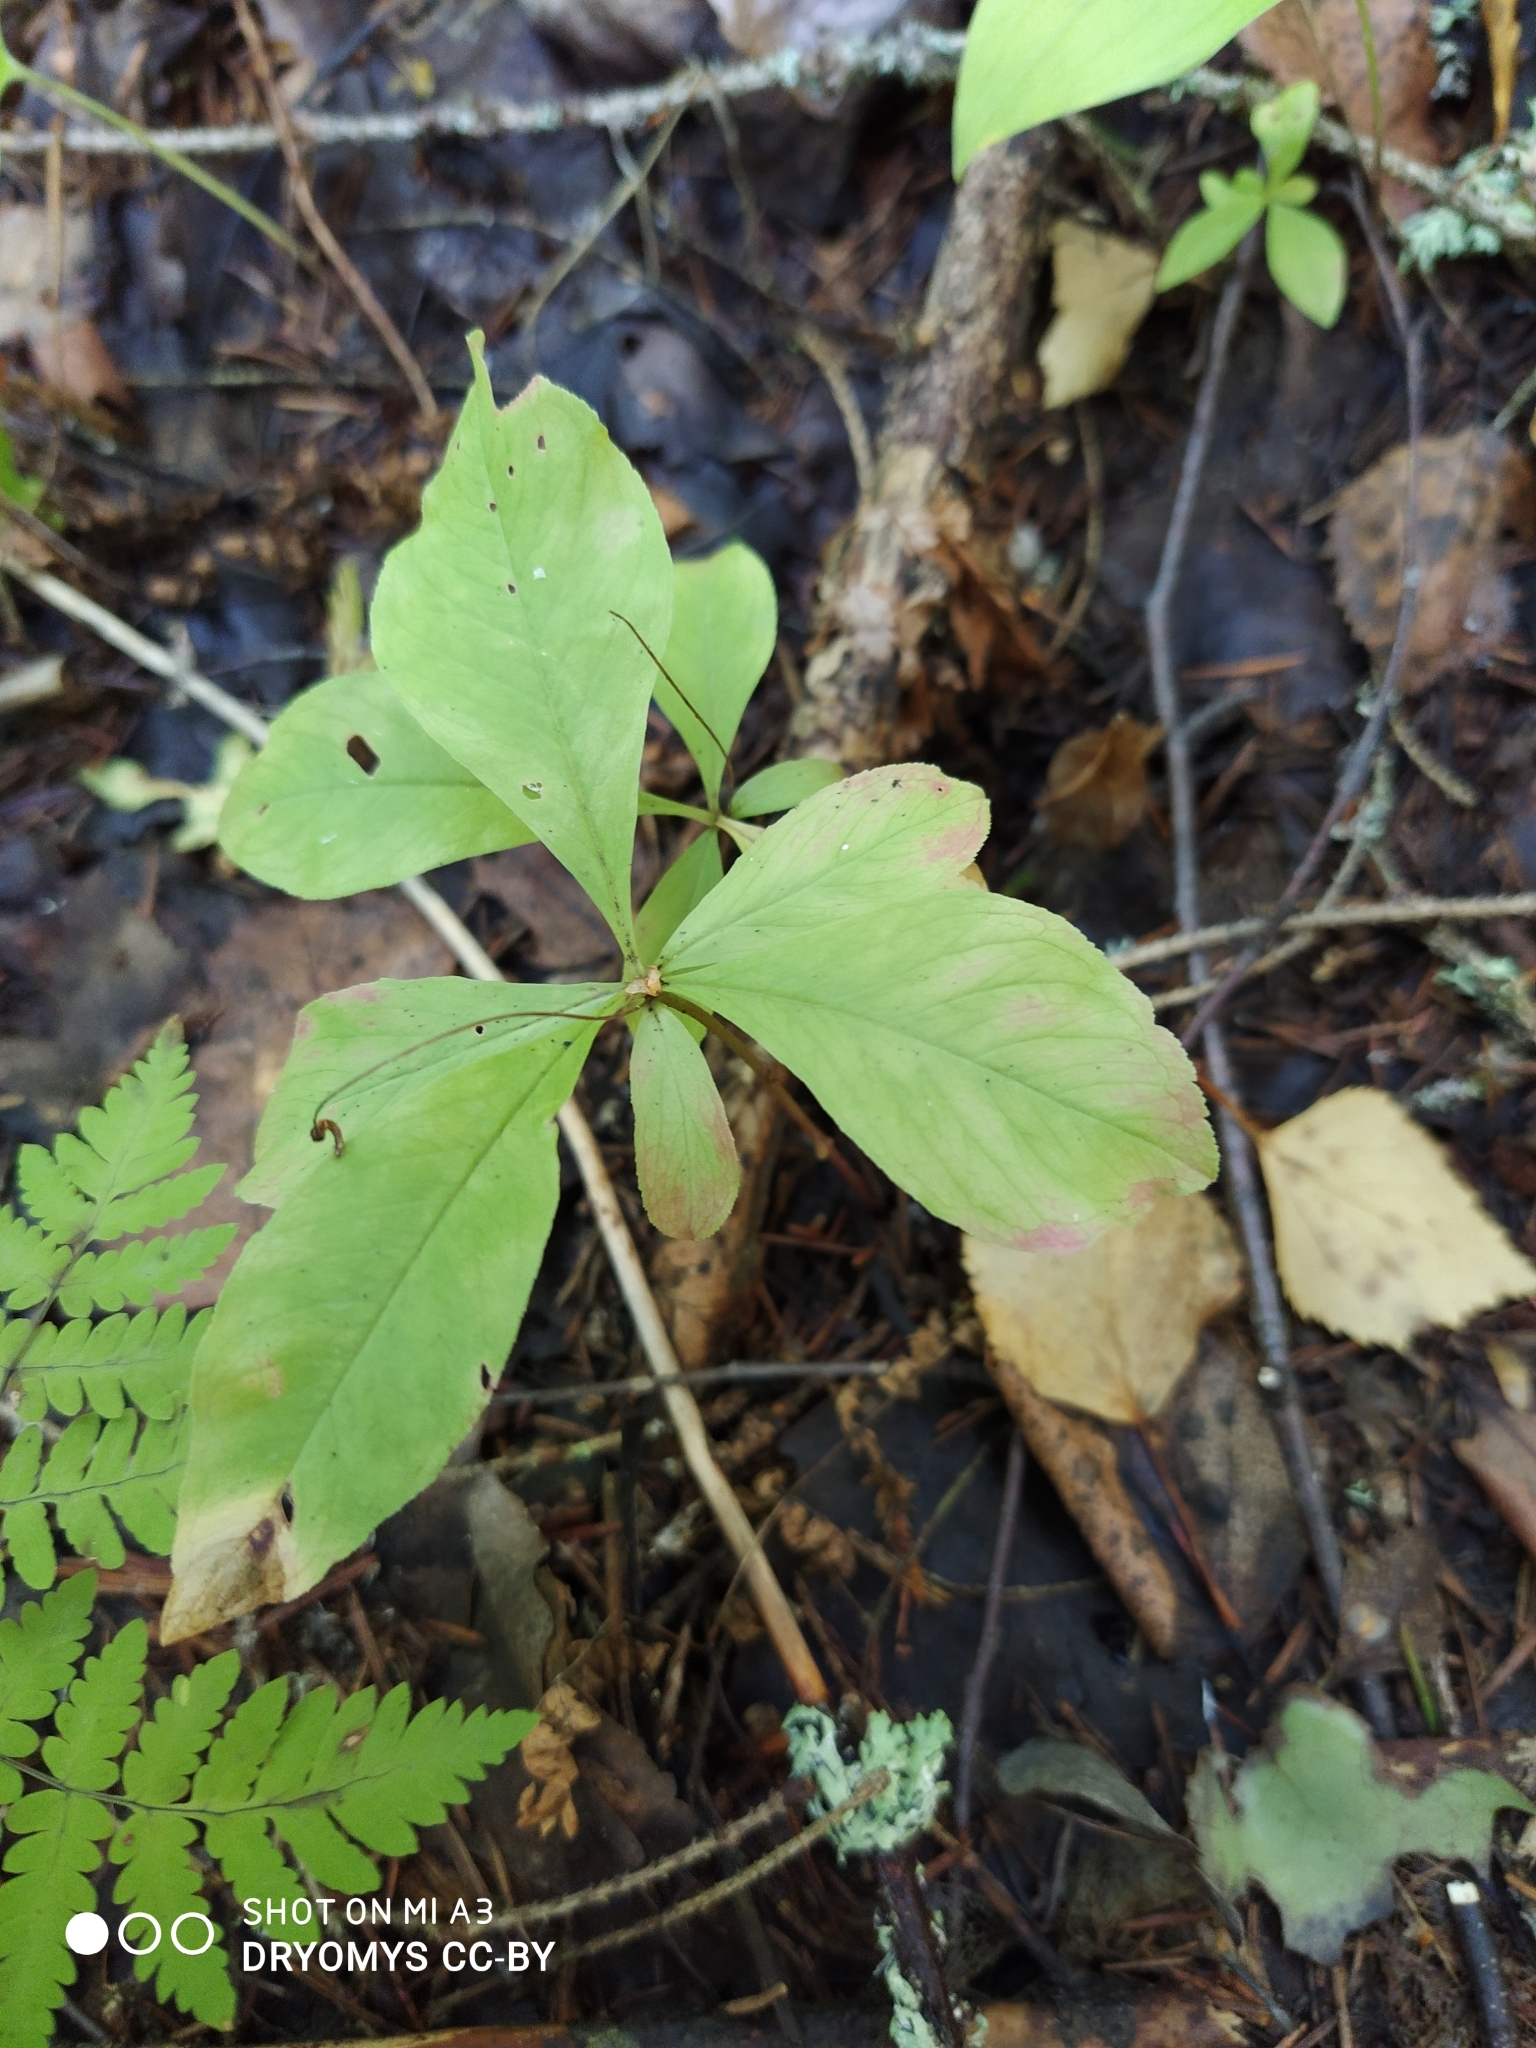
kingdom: Plantae
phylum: Tracheophyta
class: Magnoliopsida
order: Ericales
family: Primulaceae
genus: Lysimachia
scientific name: Lysimachia europaea
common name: Arctic starflower
